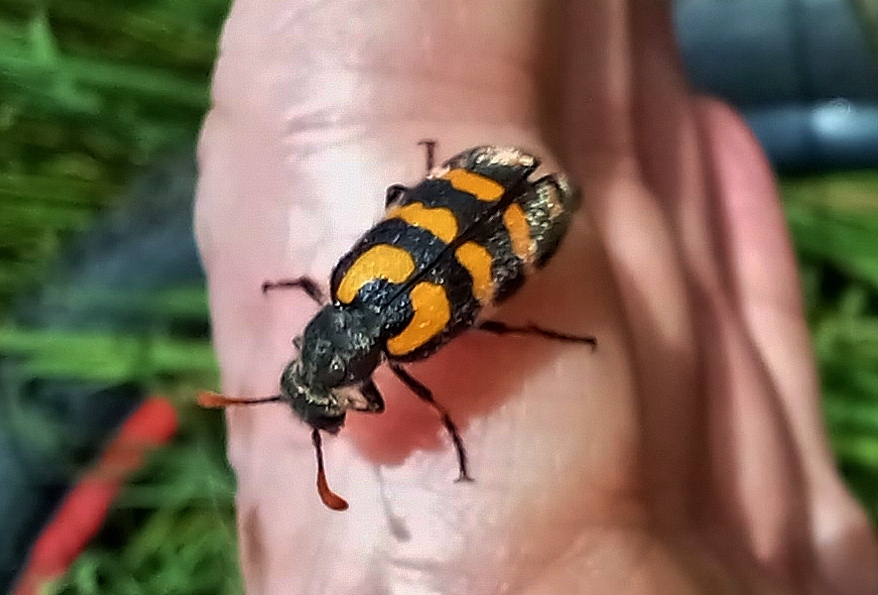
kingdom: Animalia
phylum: Arthropoda
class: Insecta
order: Coleoptera
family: Meloidae
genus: Meloe
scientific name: Meloe lunata
